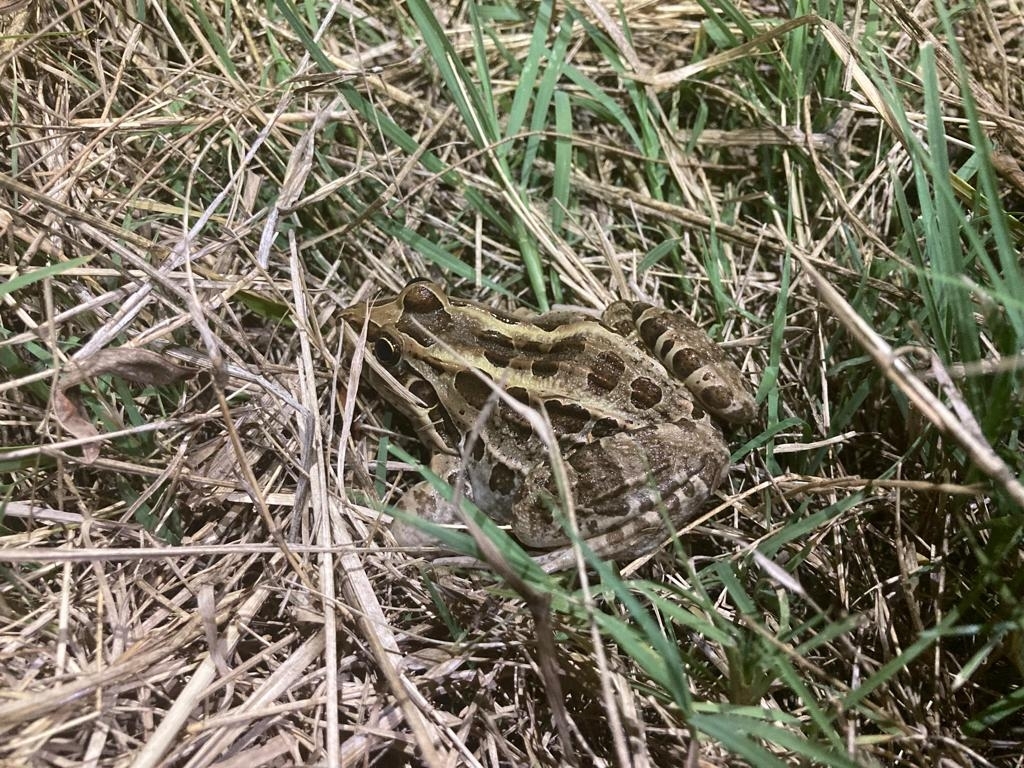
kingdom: Animalia
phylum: Chordata
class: Amphibia
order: Anura
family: Leptodactylidae
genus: Leptodactylus
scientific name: Leptodactylus luctator
